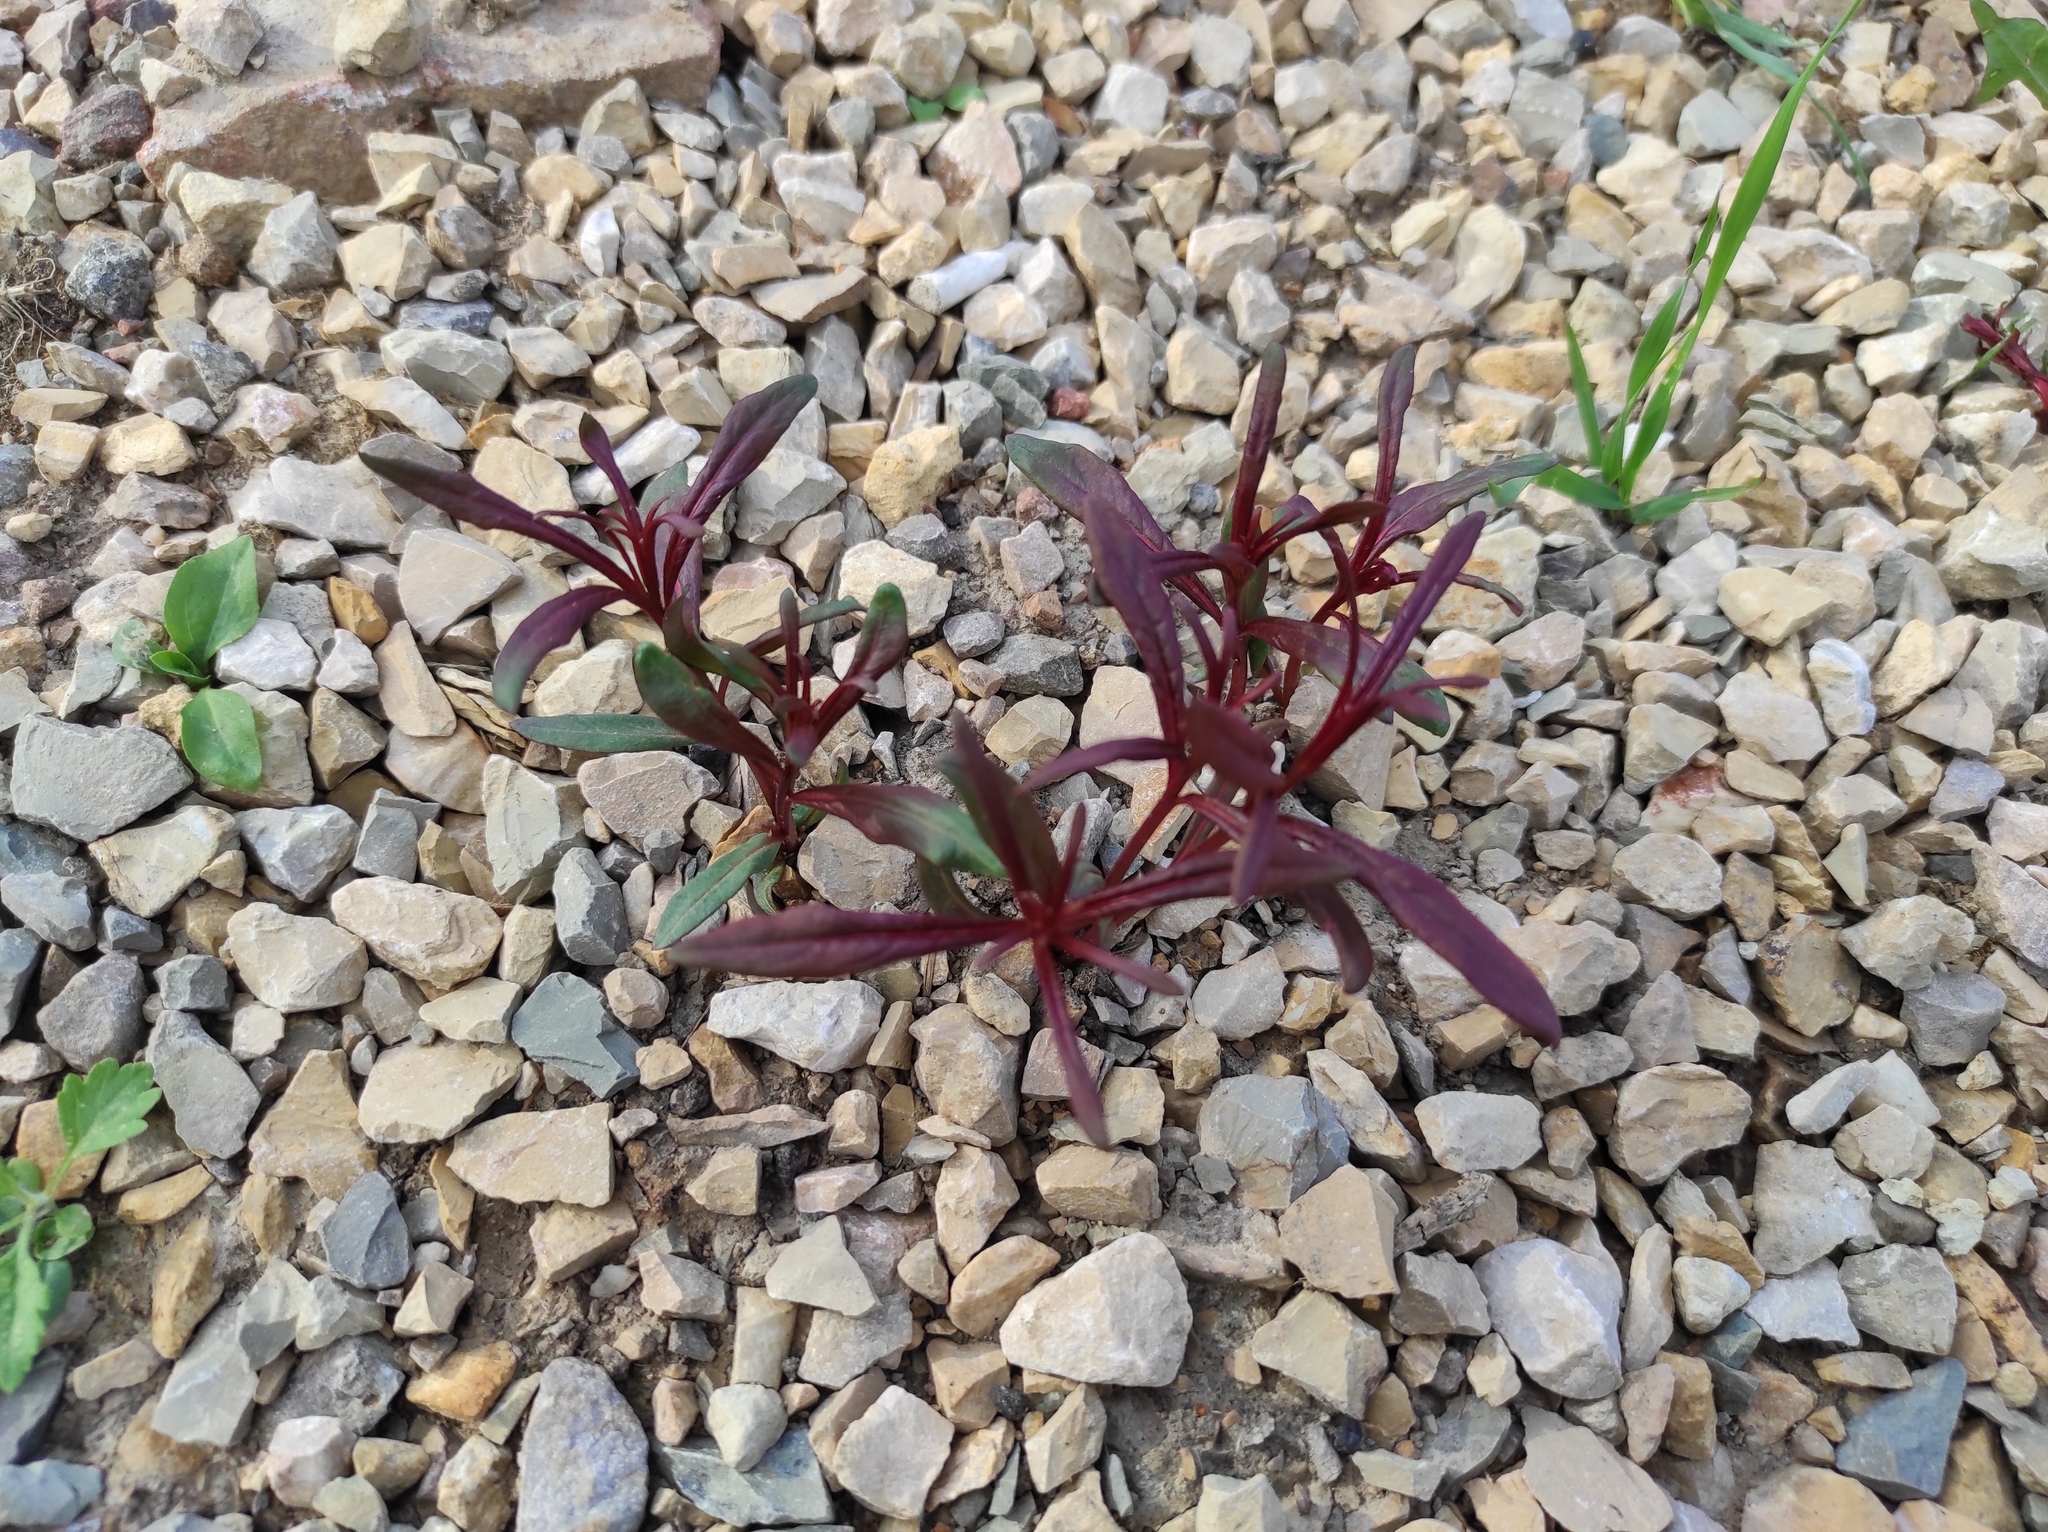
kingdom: Plantae
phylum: Tracheophyta
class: Magnoliopsida
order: Myrtales
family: Onagraceae
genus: Chamaenerion
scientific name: Chamaenerion angustifolium
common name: Fireweed
